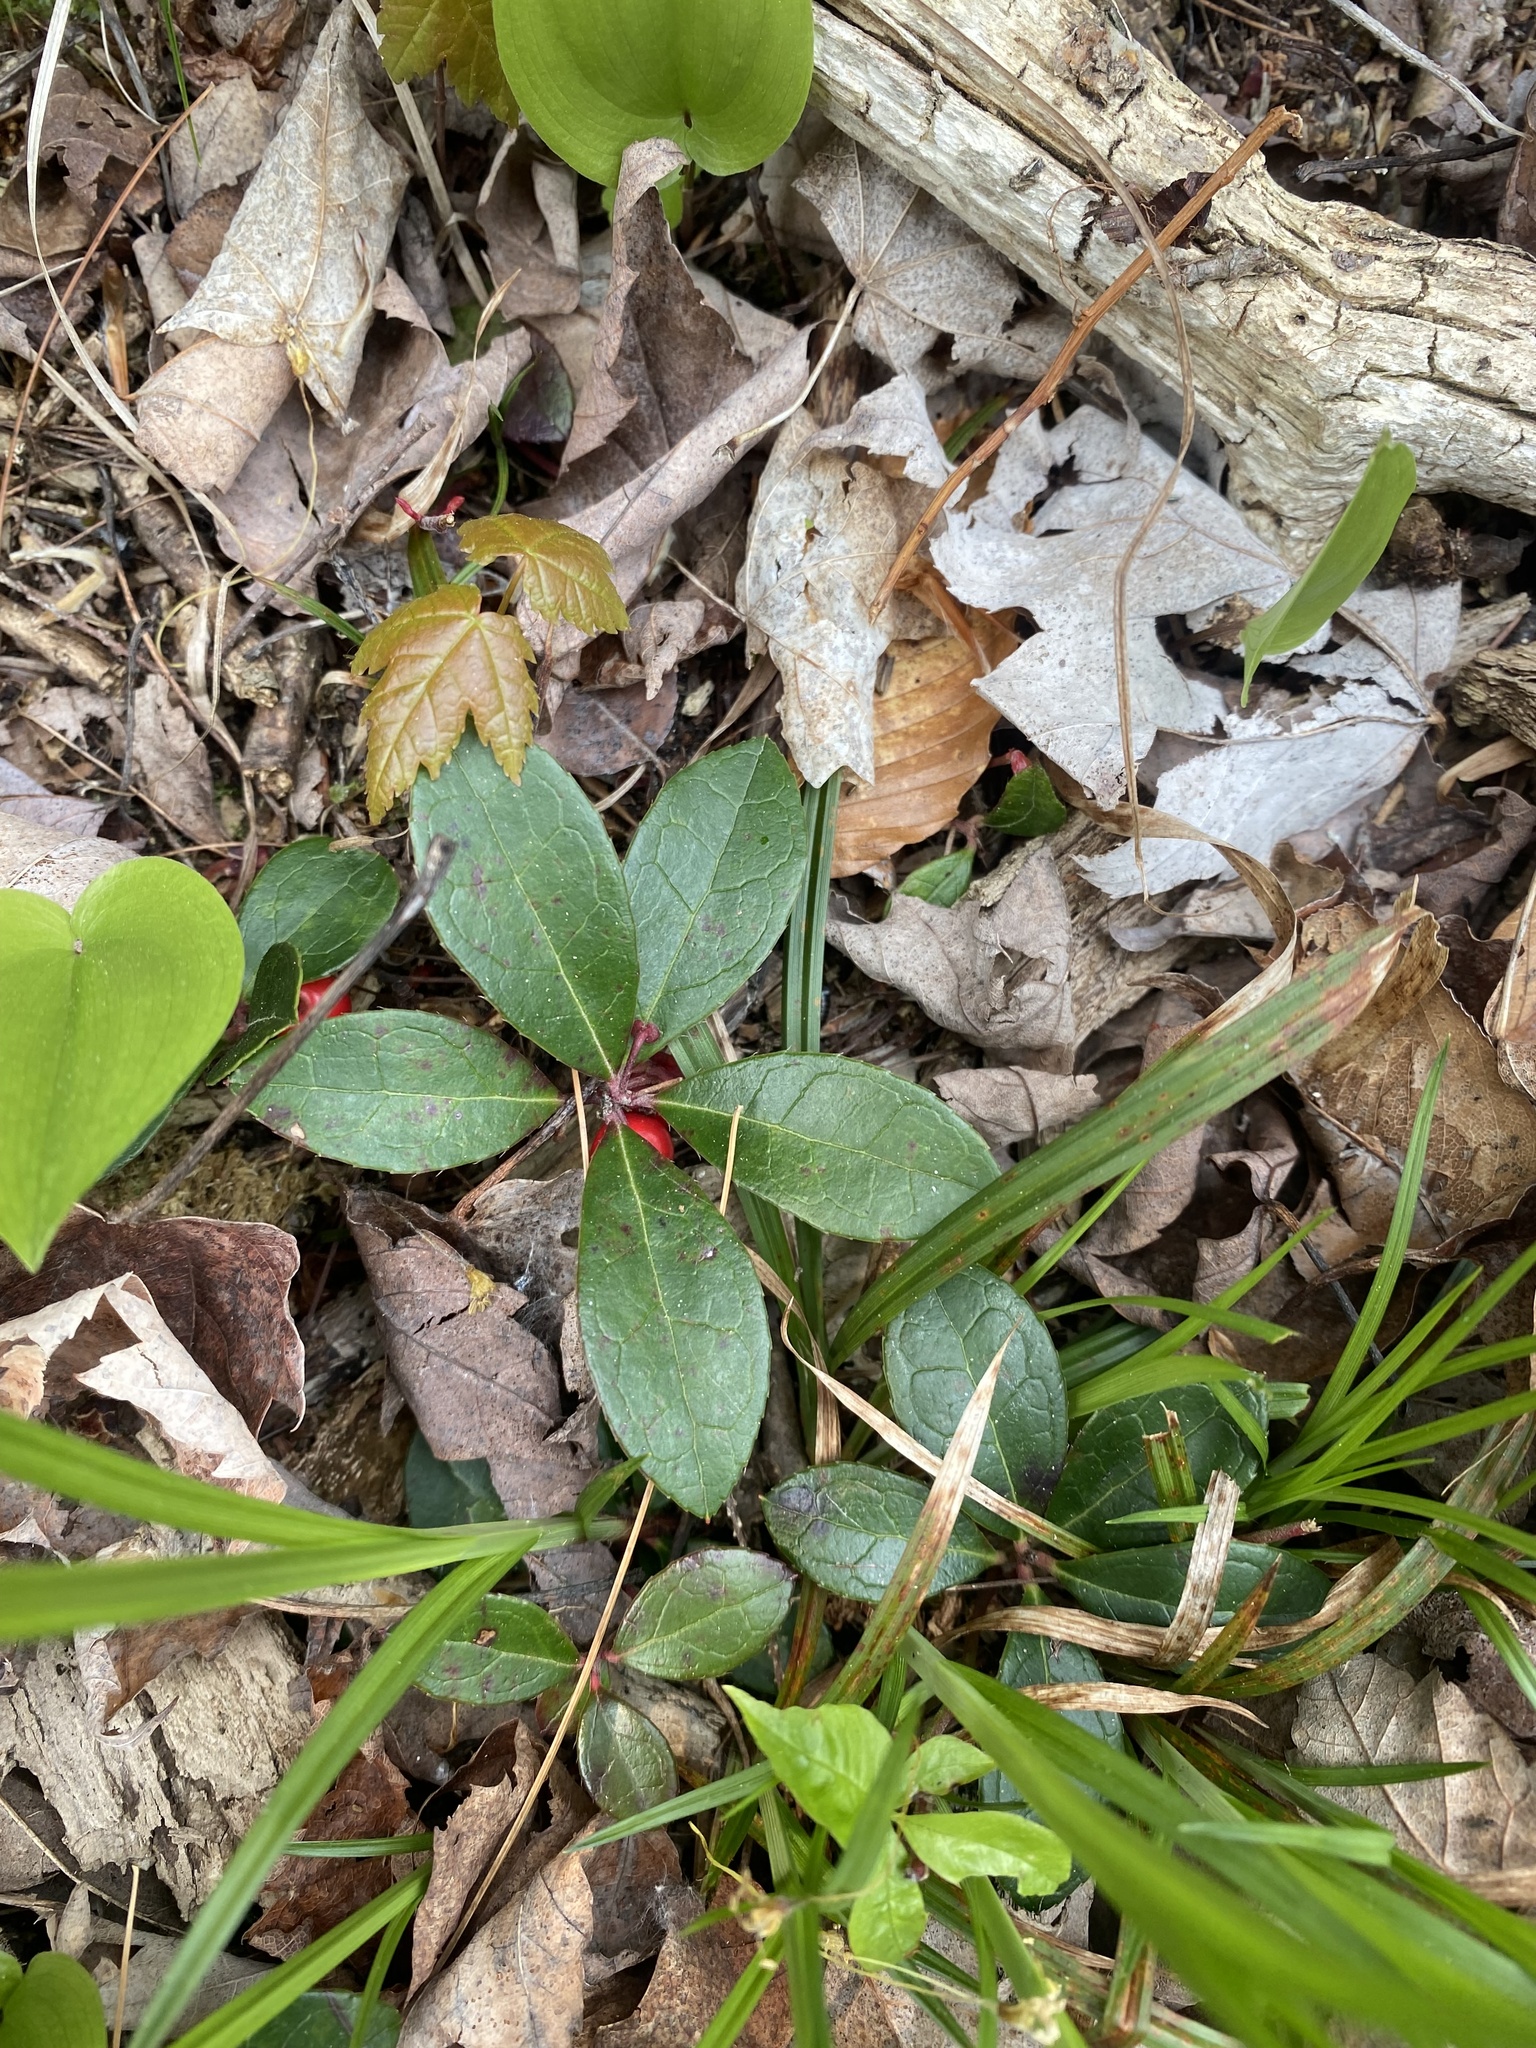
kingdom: Plantae
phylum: Tracheophyta
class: Magnoliopsida
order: Ericales
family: Ericaceae
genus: Gaultheria
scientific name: Gaultheria procumbens
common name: Checkerberry
